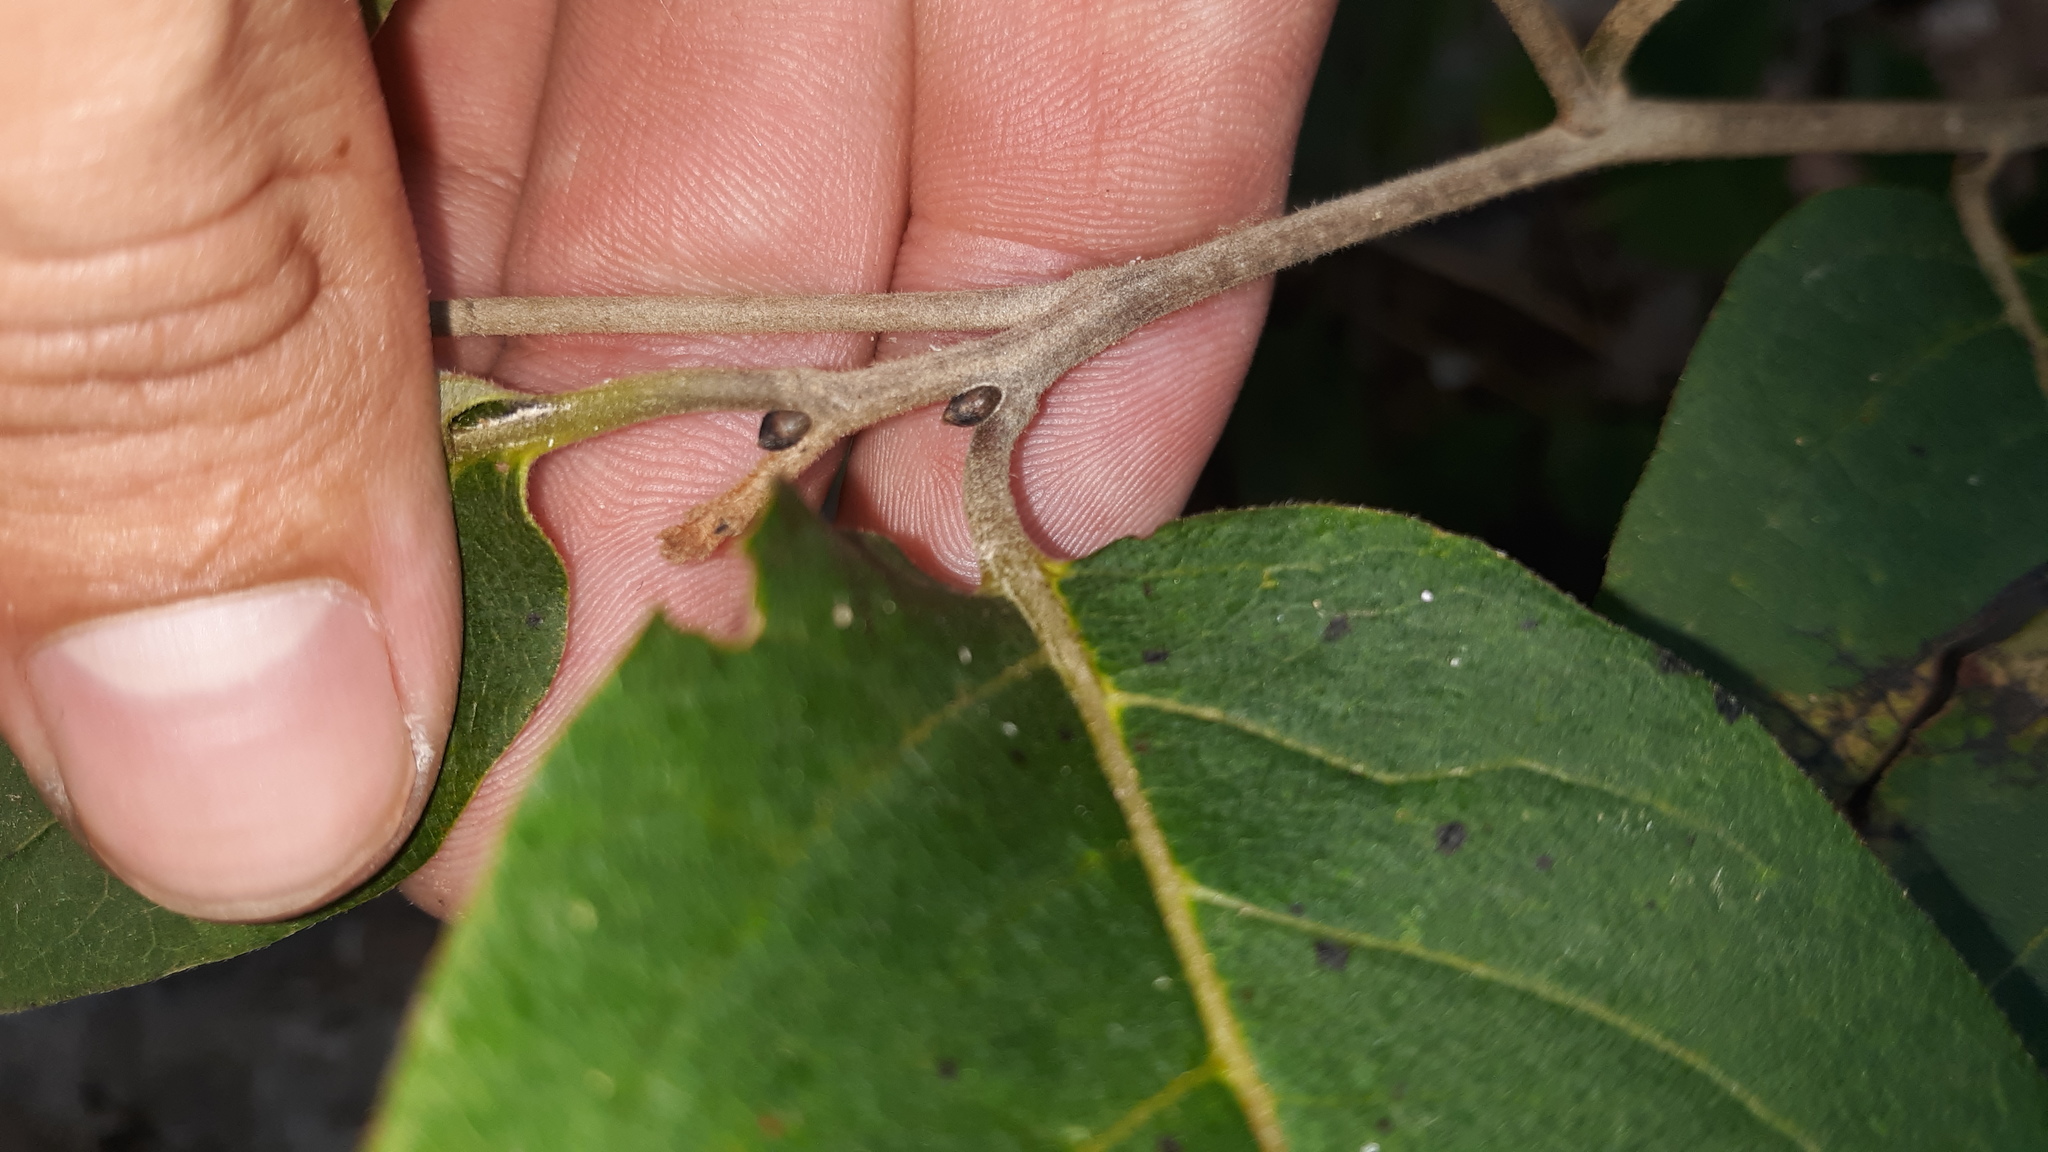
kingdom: Plantae
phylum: Tracheophyta
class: Magnoliopsida
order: Ericales
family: Ebenaceae
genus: Diospyros
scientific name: Diospyros virginiana
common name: Persimmon
